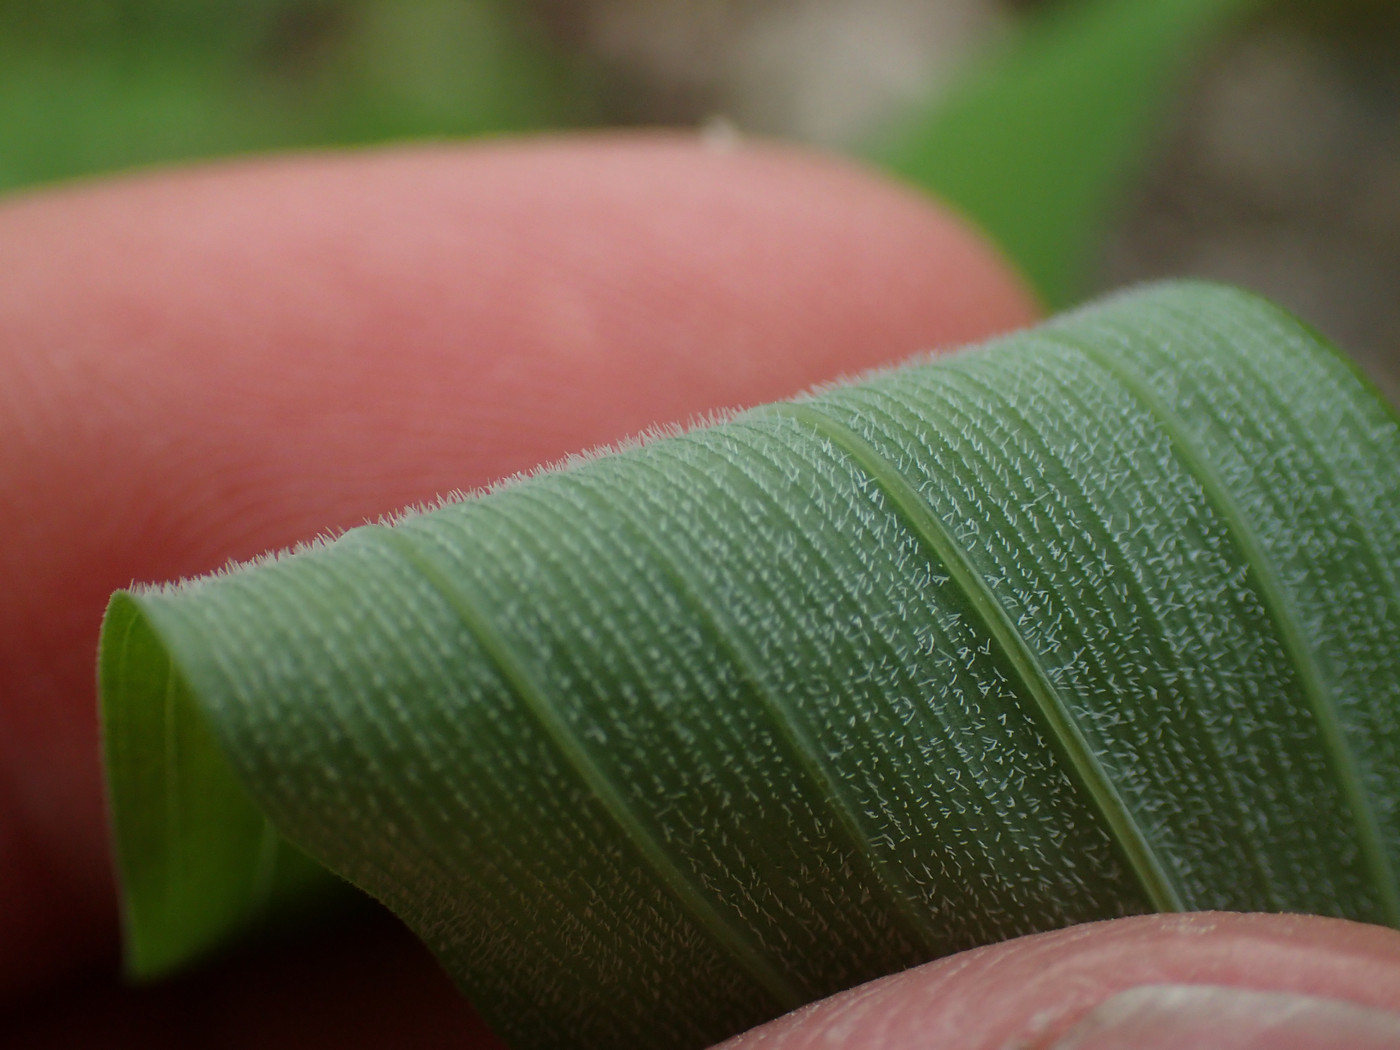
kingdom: Plantae
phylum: Tracheophyta
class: Liliopsida
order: Asparagales
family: Asparagaceae
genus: Polygonatum
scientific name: Polygonatum pubescens
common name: Downy solomon's seal
